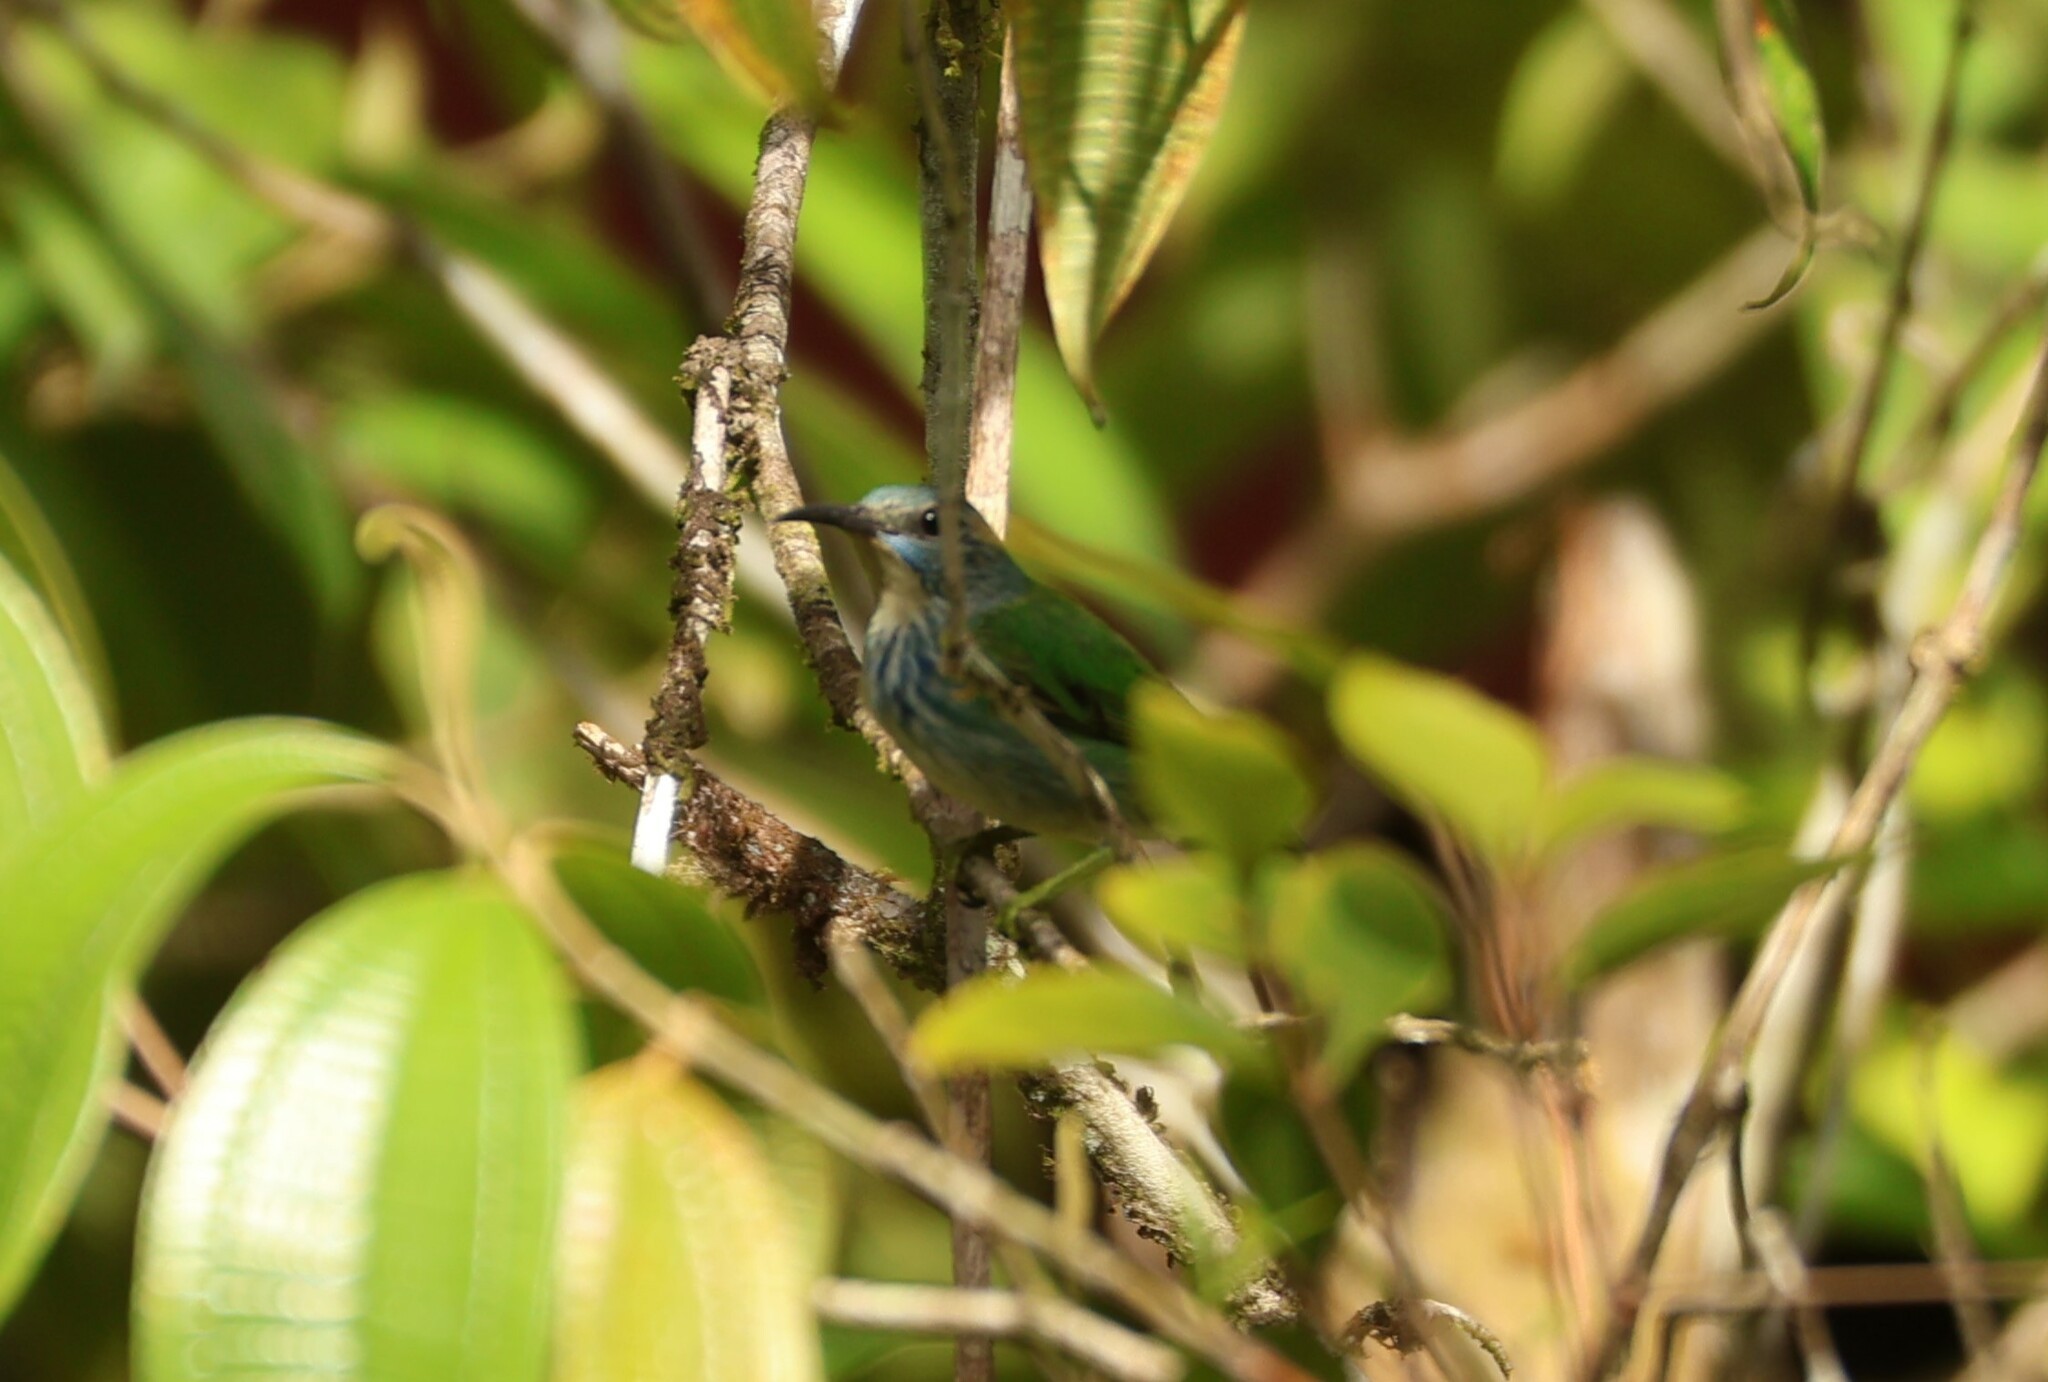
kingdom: Animalia
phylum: Chordata
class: Aves
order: Passeriformes
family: Thraupidae
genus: Cyanerpes
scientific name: Cyanerpes lucidus
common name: Shining honeycreeper
